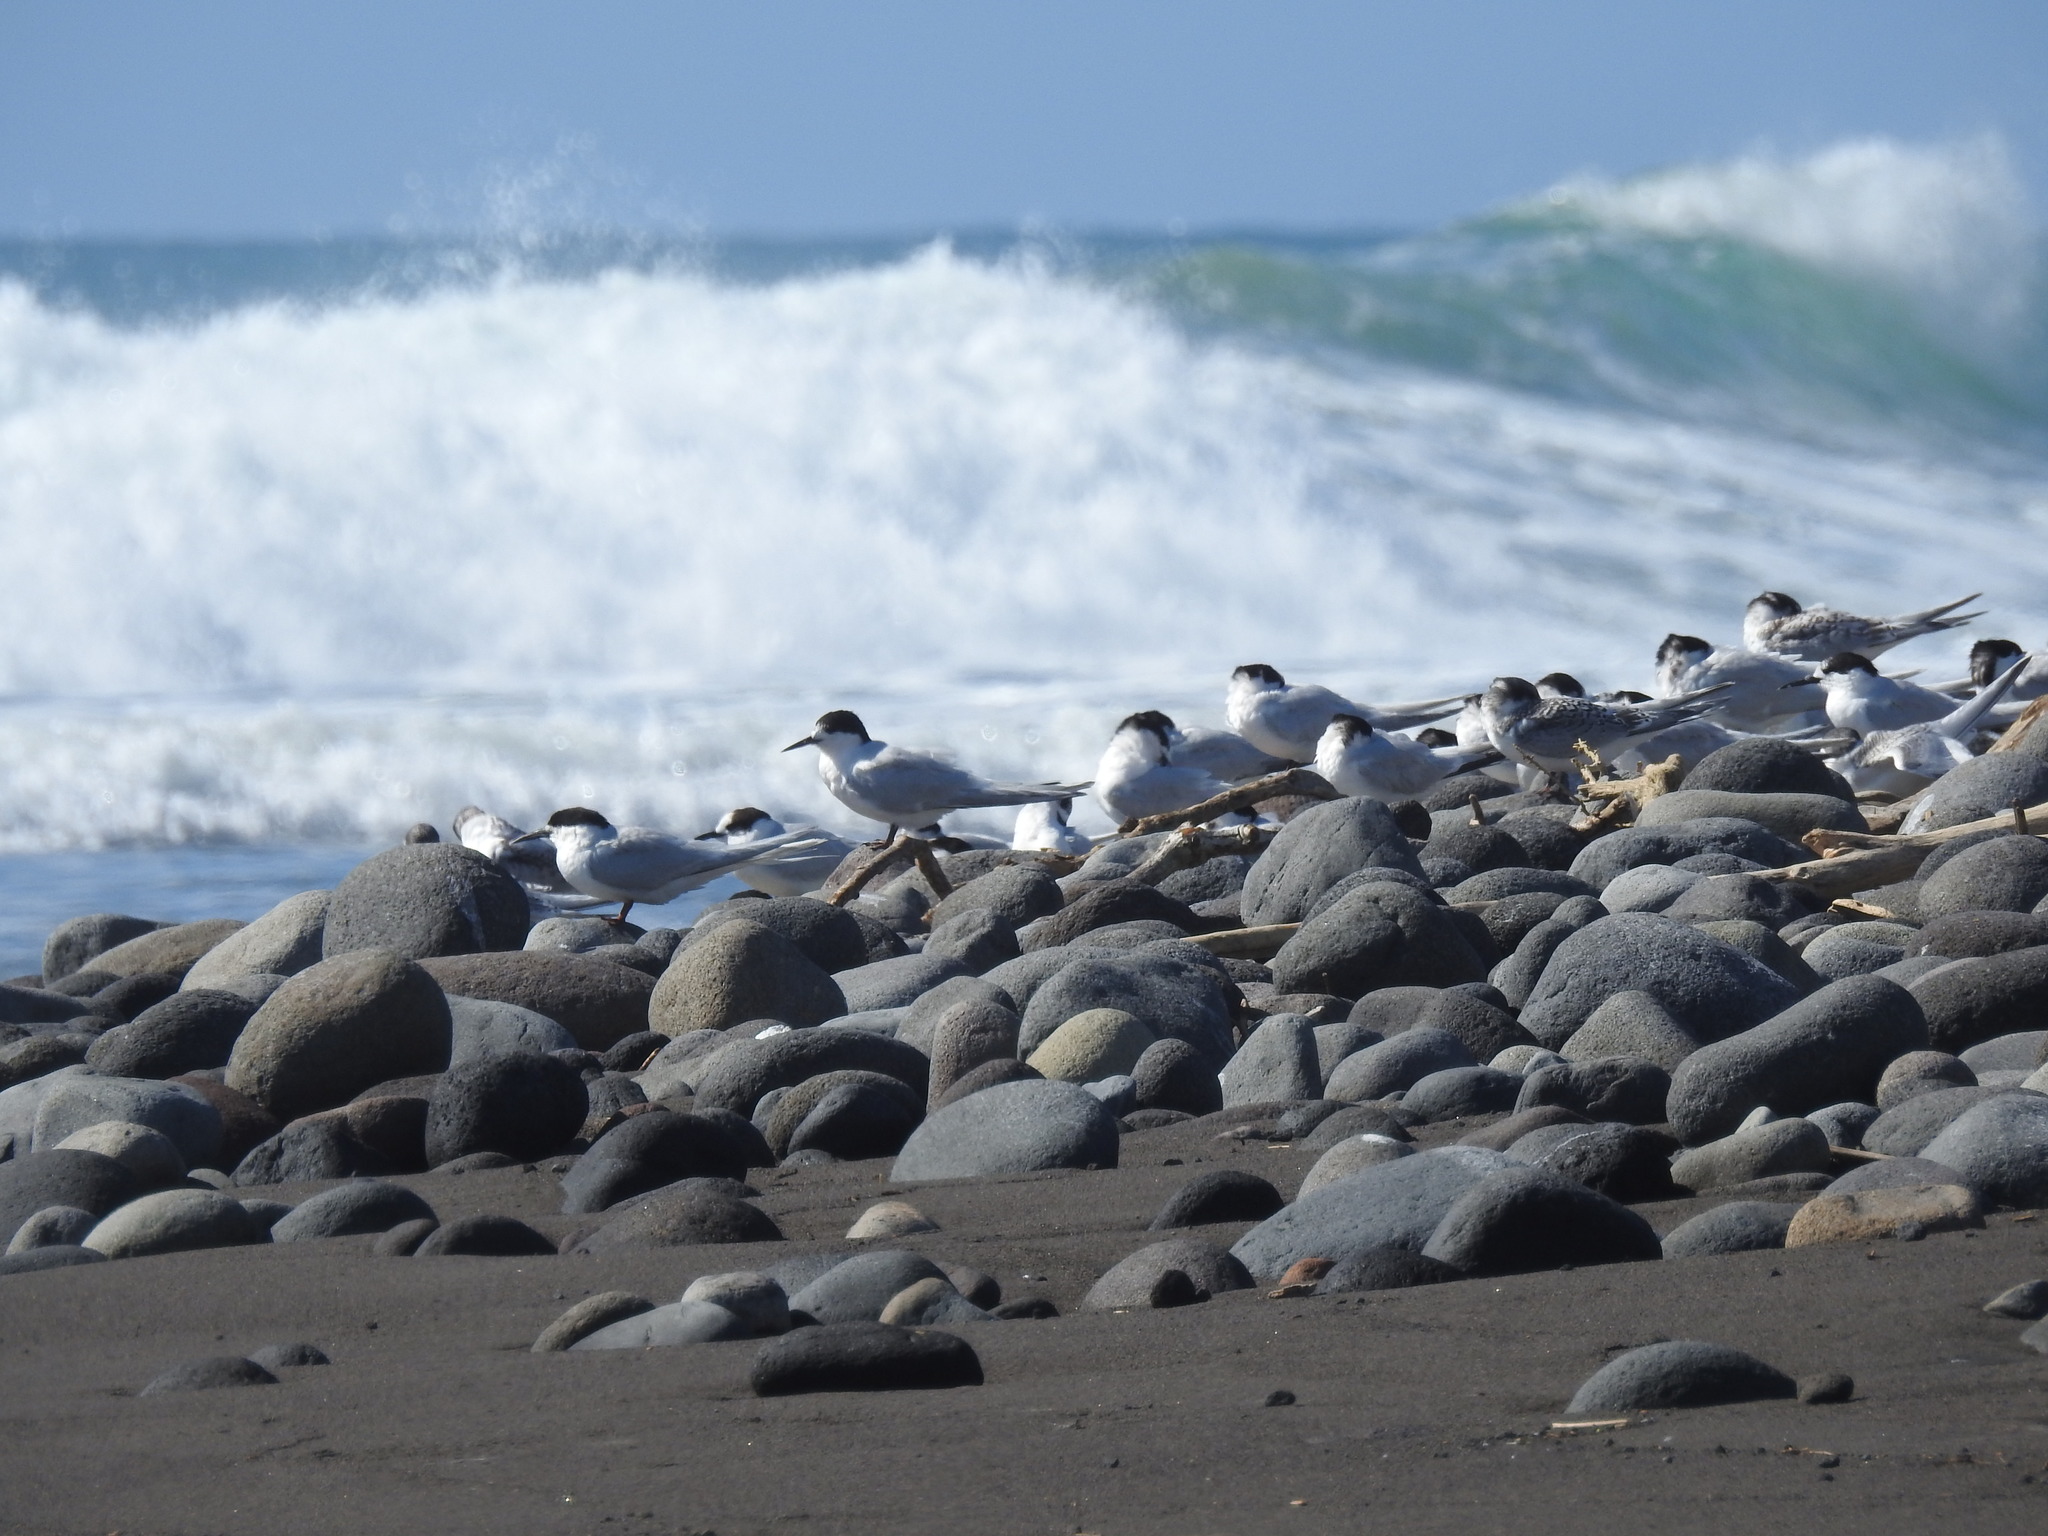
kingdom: Animalia
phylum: Chordata
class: Aves
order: Charadriiformes
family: Laridae
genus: Sterna
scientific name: Sterna striata
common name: White-fronted tern
